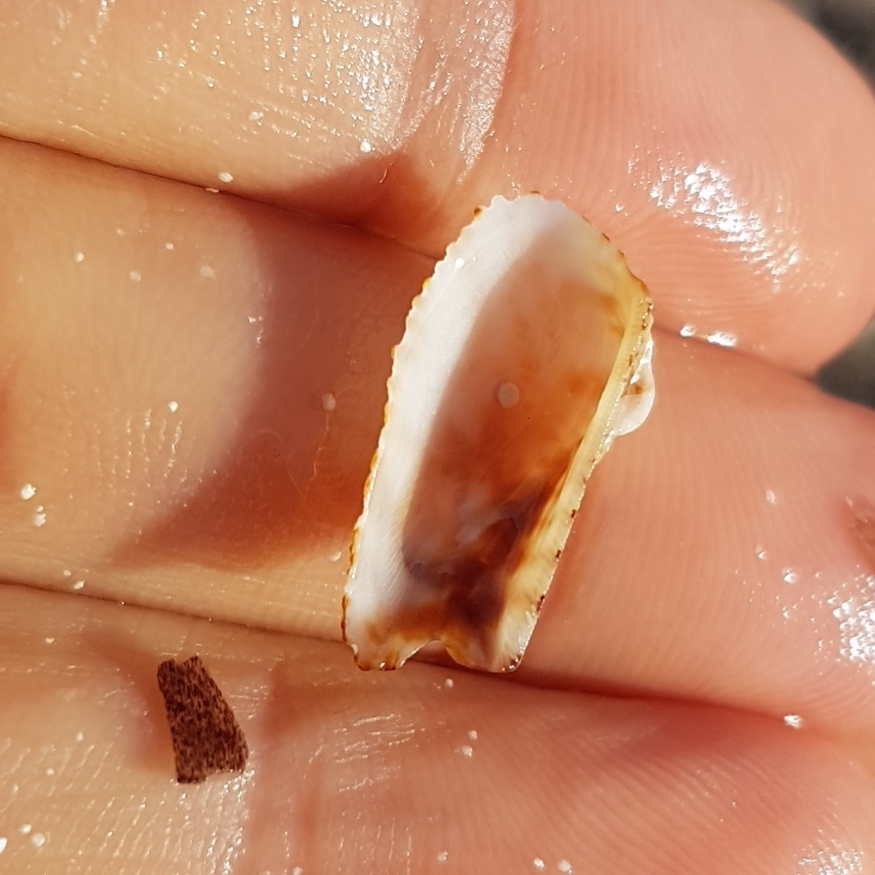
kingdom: Animalia
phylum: Mollusca
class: Bivalvia
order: Arcida
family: Arcidae
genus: Arca
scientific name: Arca noae
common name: Noah's arch
